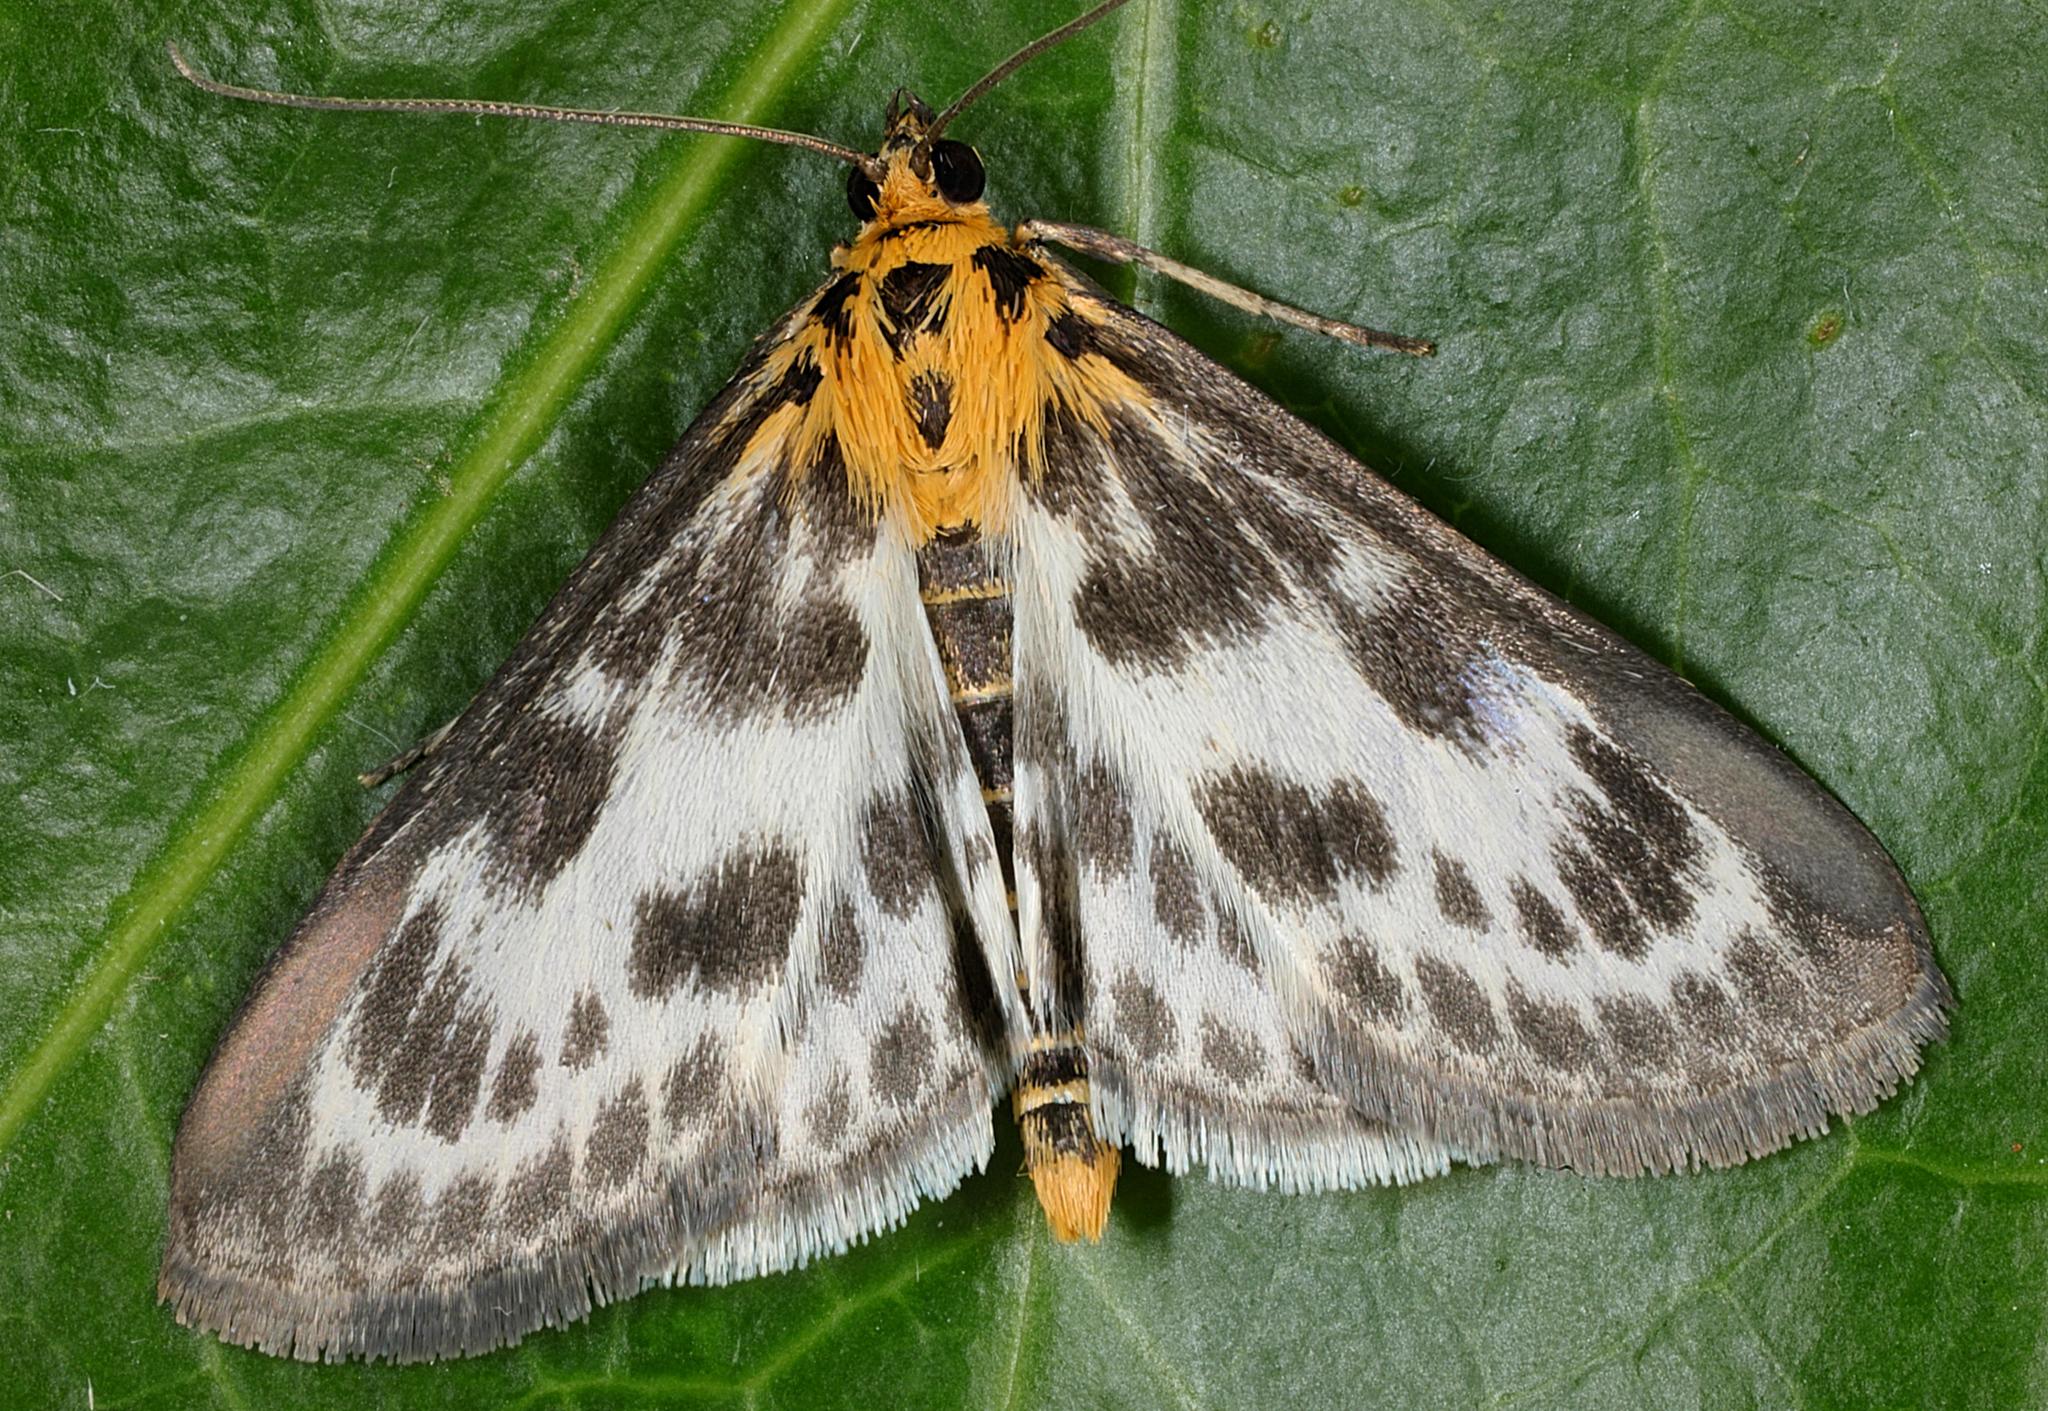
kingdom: Animalia
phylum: Arthropoda
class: Insecta
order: Lepidoptera
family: Crambidae
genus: Anania
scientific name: Anania hortulata
